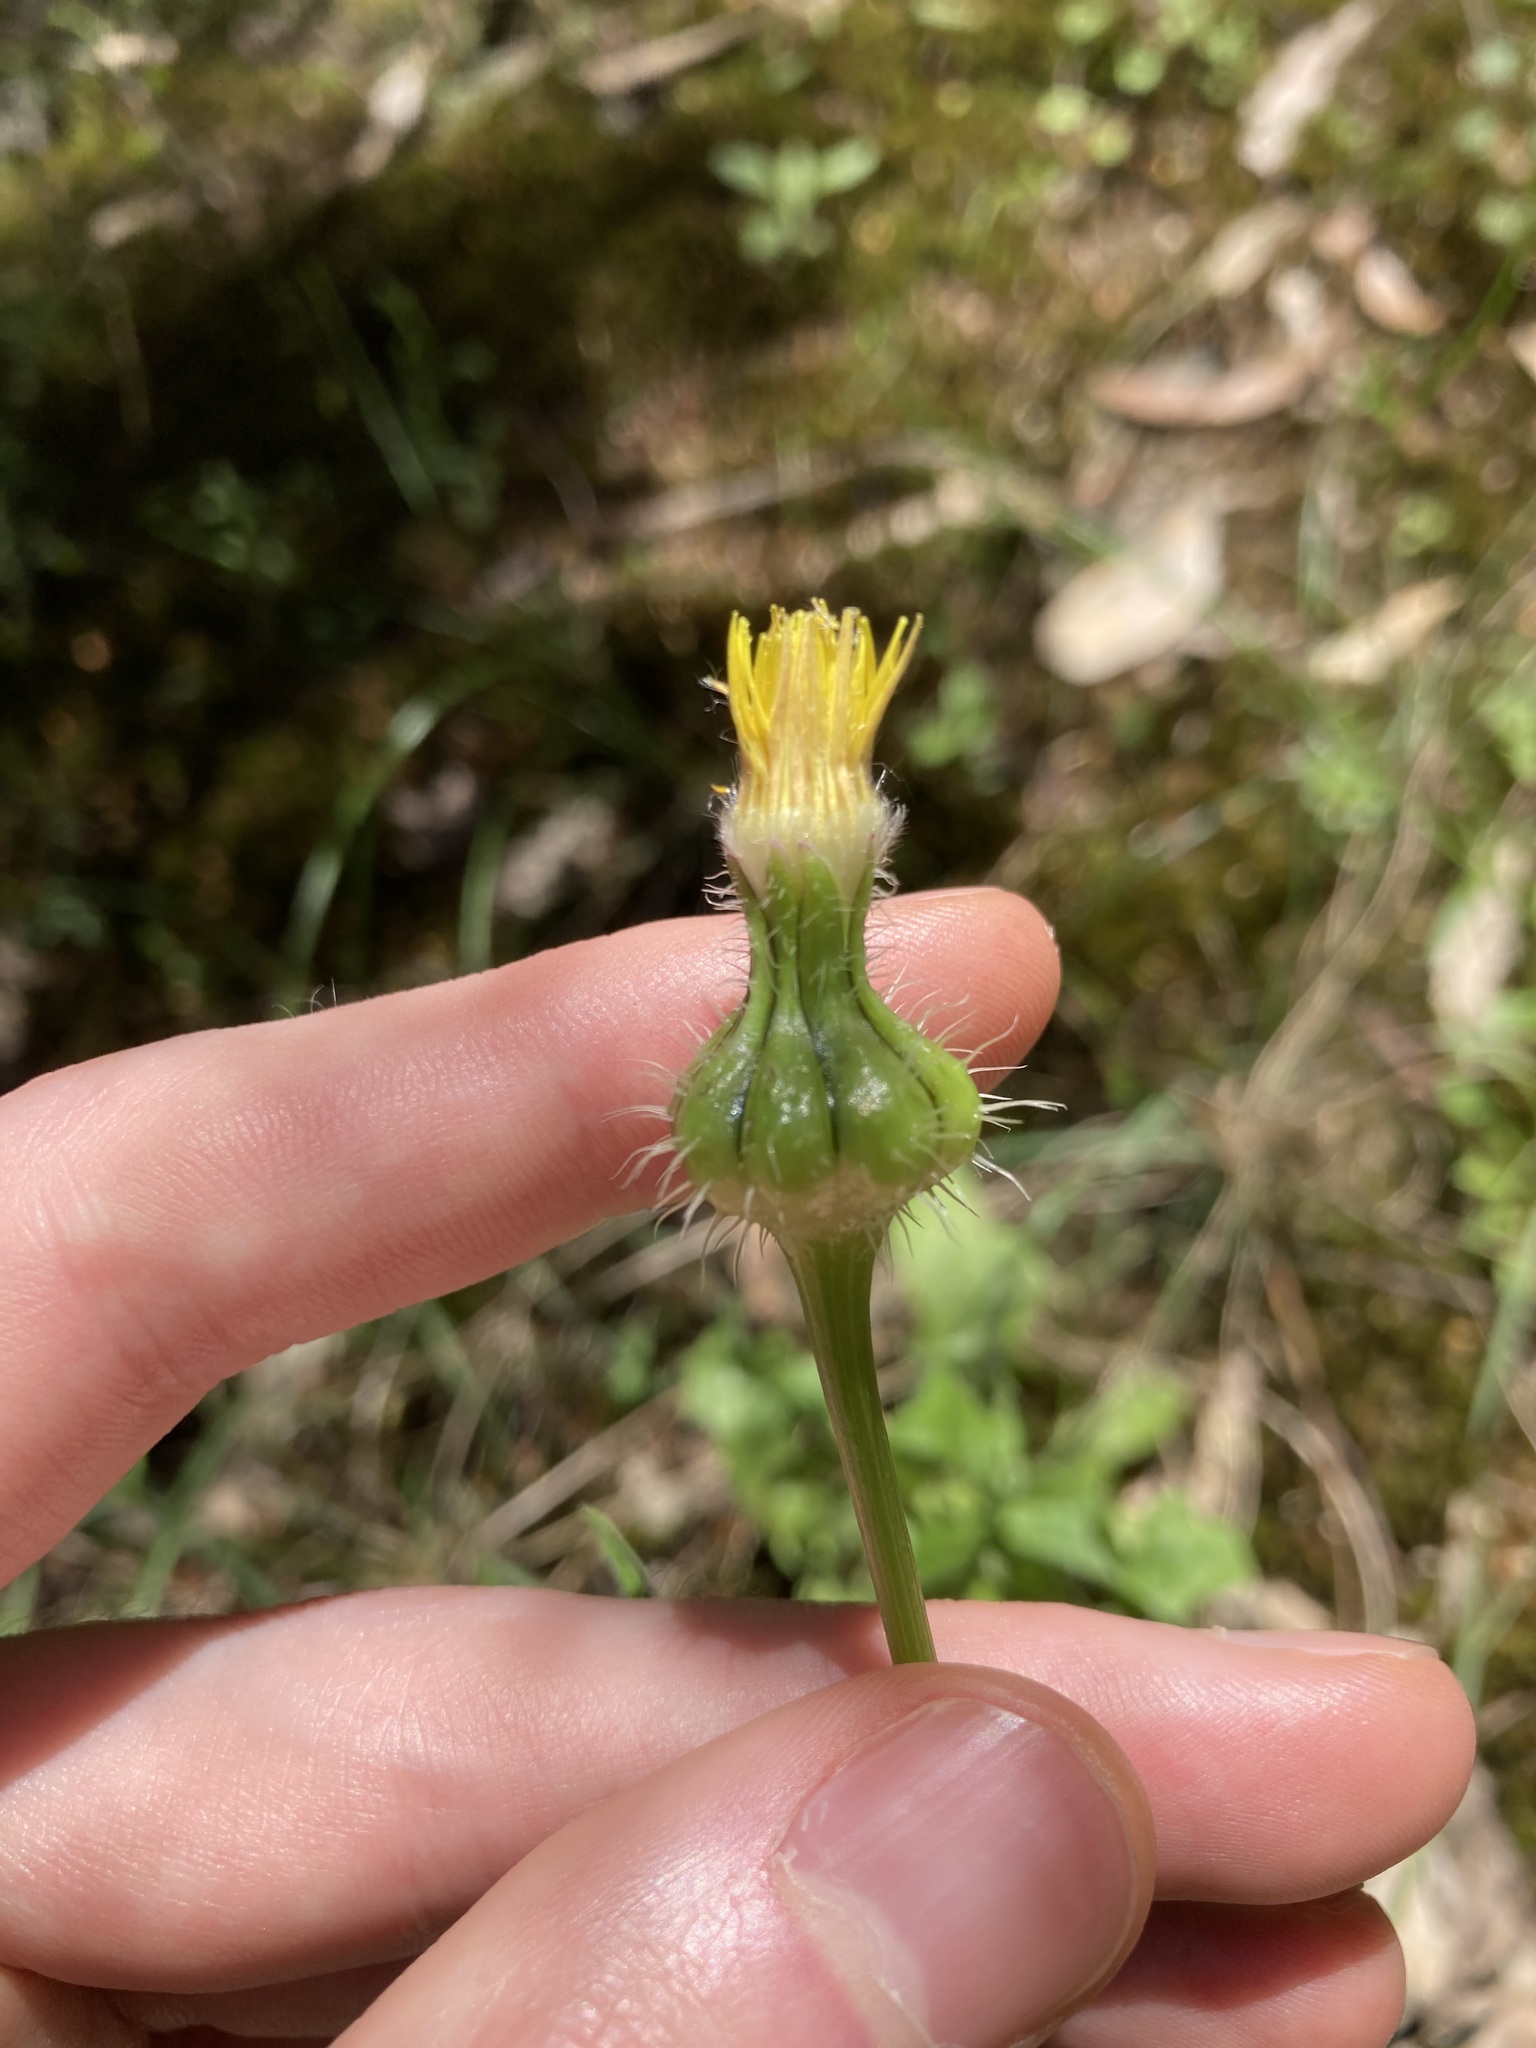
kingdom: Plantae
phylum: Tracheophyta
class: Magnoliopsida
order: Asterales
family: Asteraceae
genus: Urospermum
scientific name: Urospermum picroides
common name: False hawkbit
